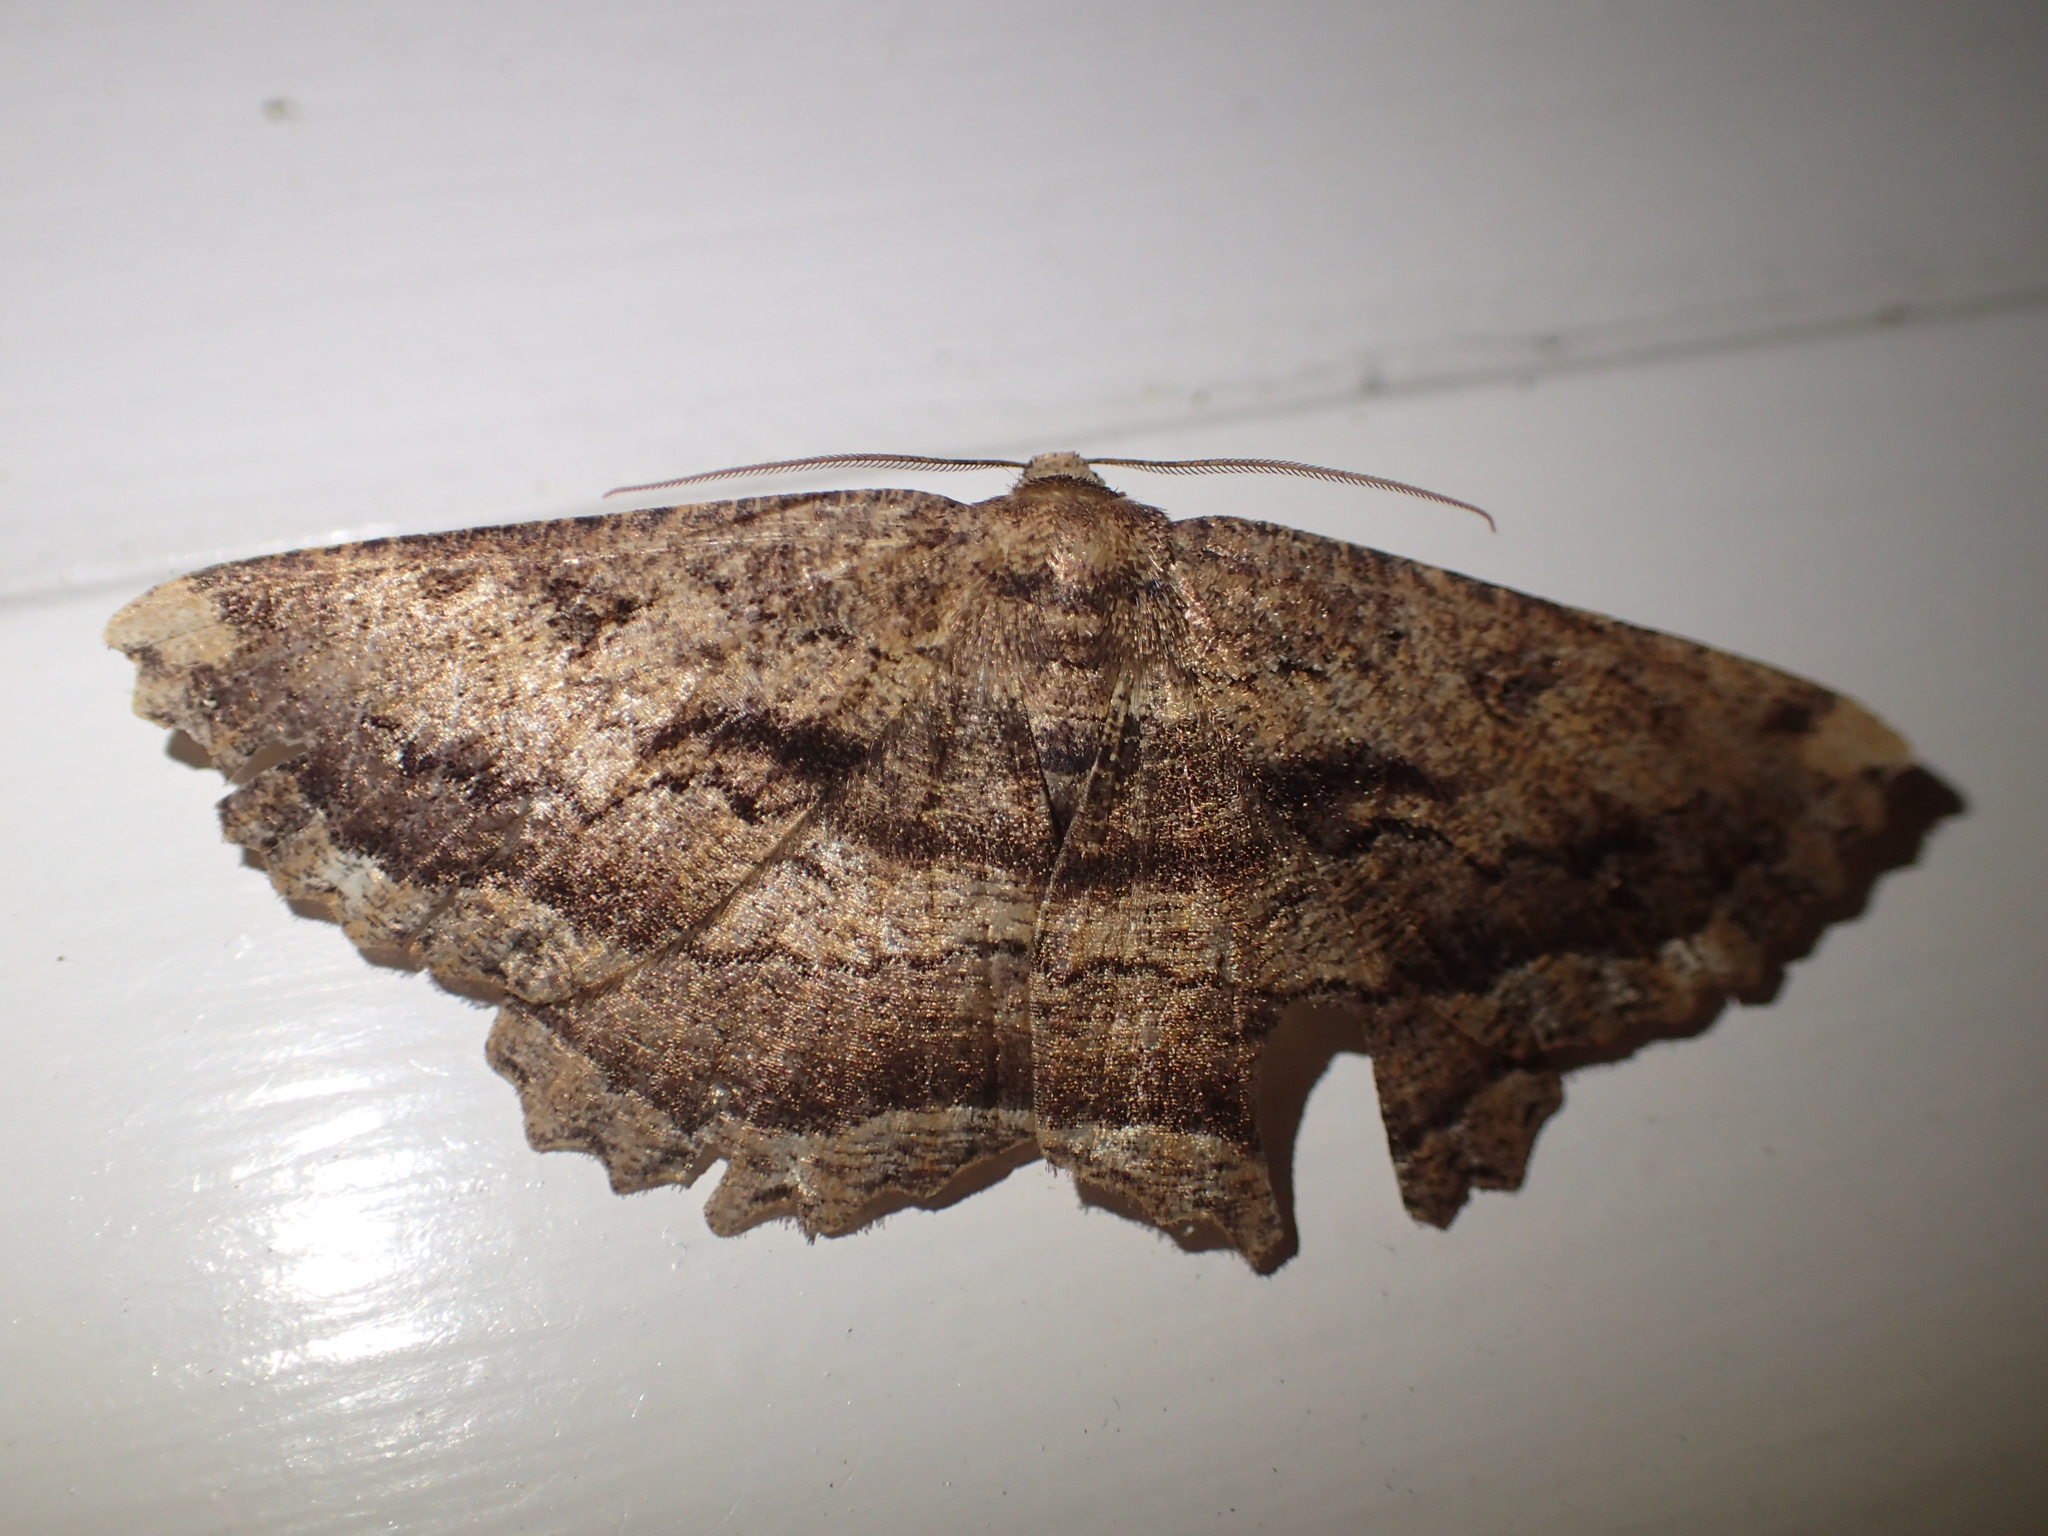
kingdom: Animalia
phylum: Arthropoda
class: Insecta
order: Lepidoptera
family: Geometridae
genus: Gellonia
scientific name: Gellonia dejectaria
